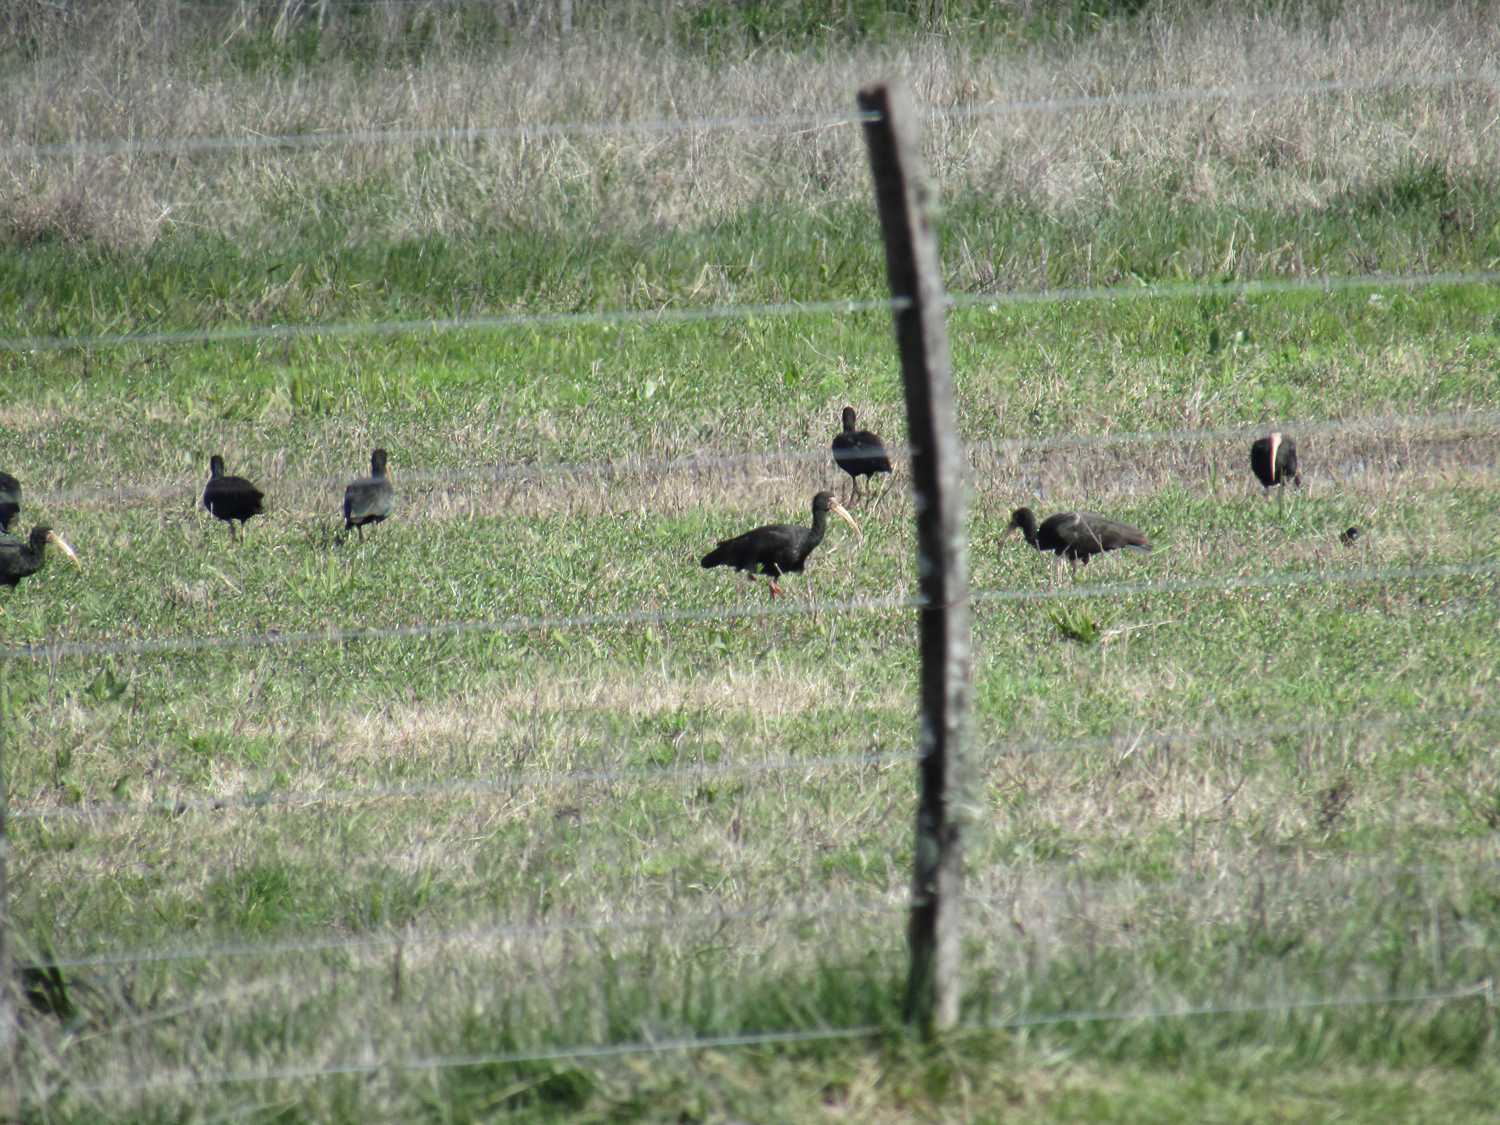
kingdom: Animalia
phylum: Chordata
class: Aves
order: Pelecaniformes
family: Threskiornithidae
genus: Phimosus
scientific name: Phimosus infuscatus
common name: Bare-faced ibis
